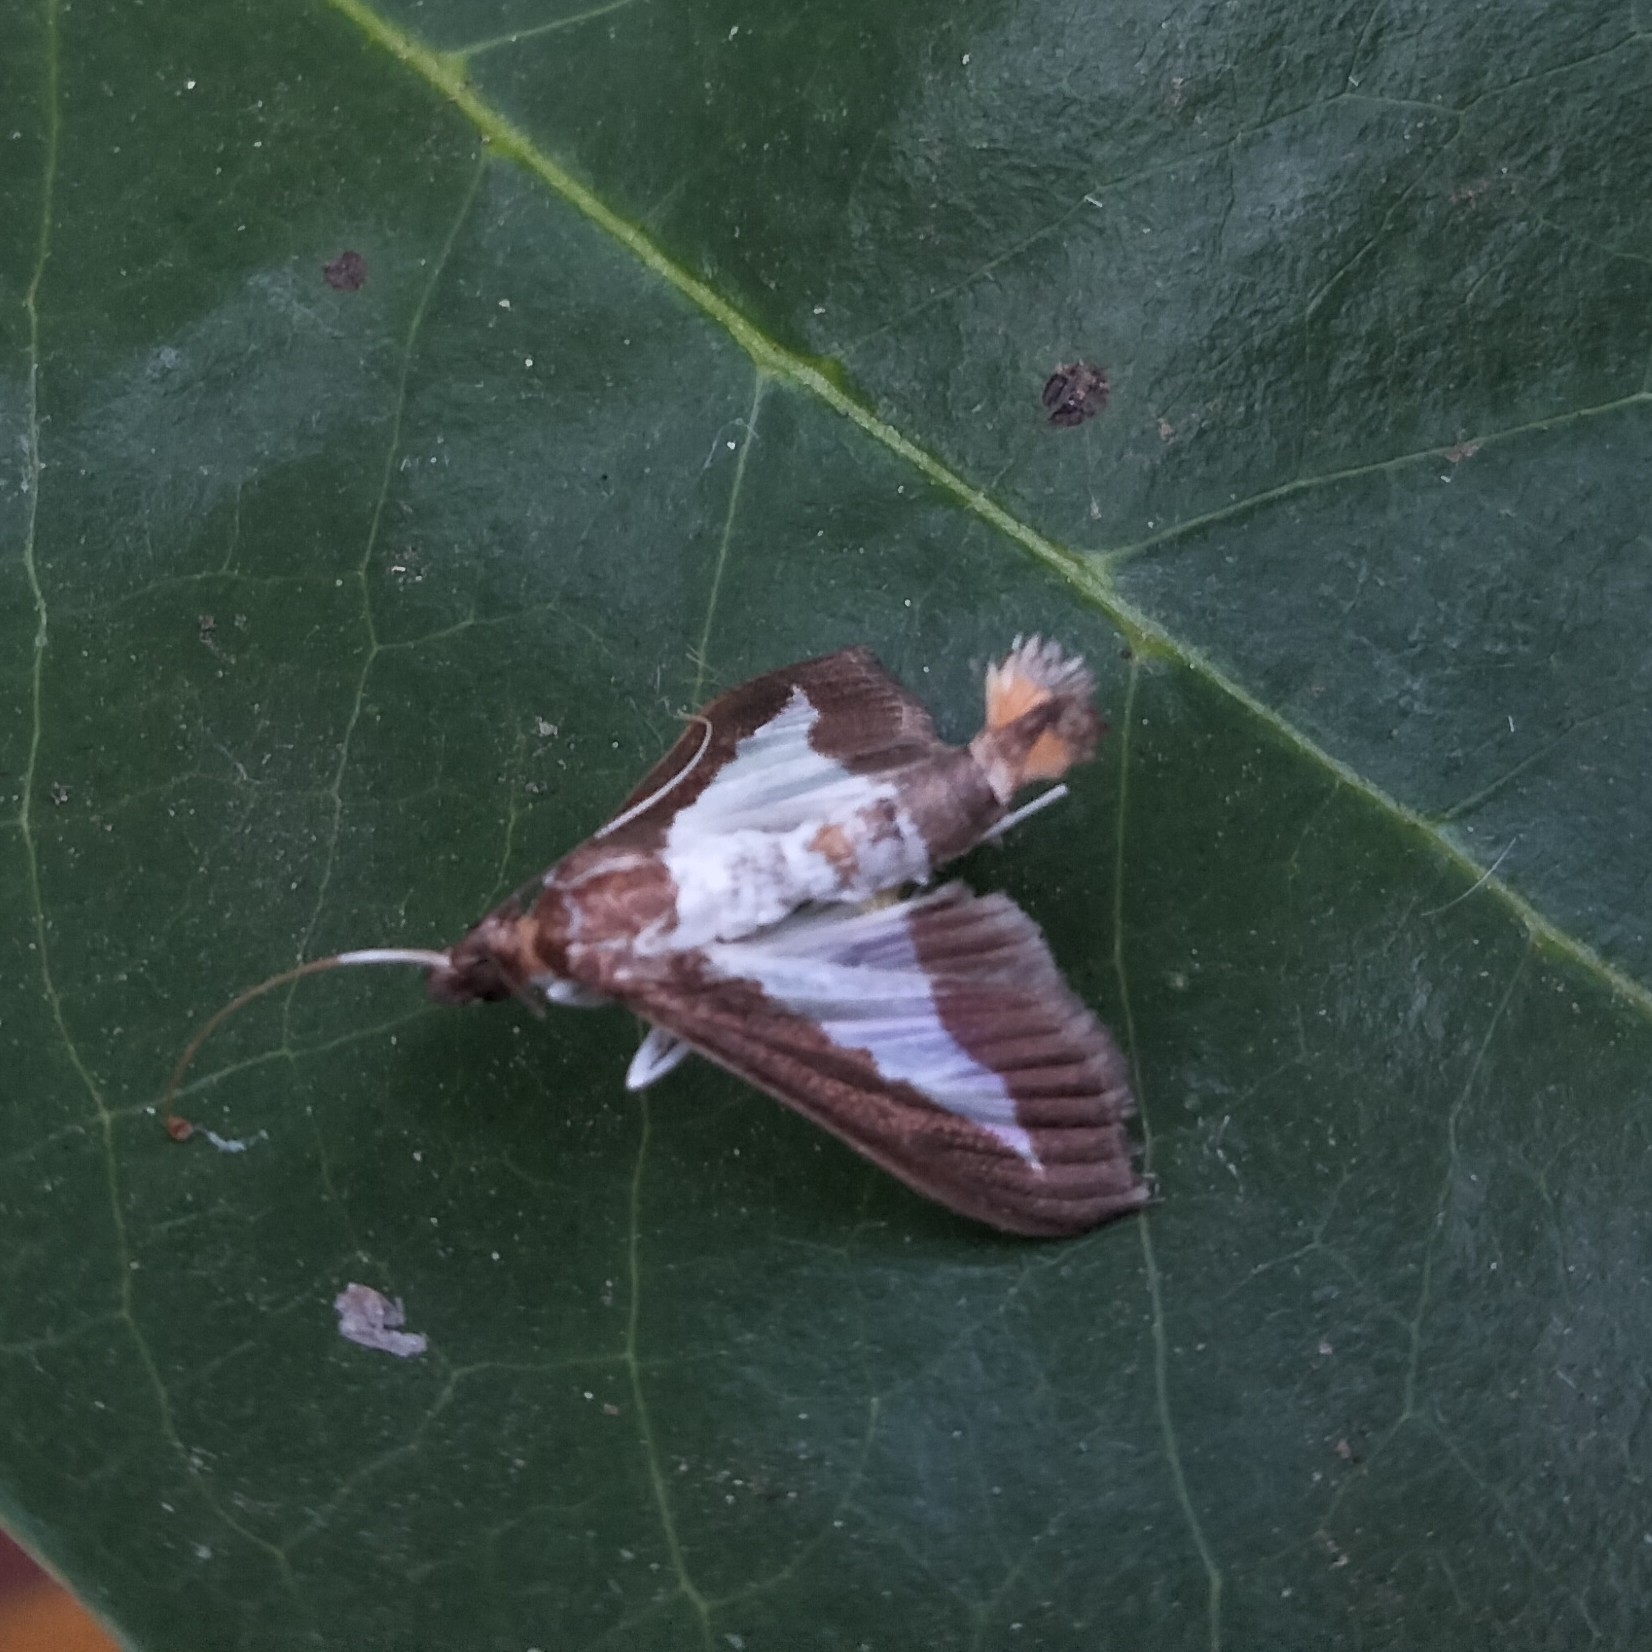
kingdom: Animalia
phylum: Arthropoda
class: Insecta
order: Lepidoptera
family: Crambidae
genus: Diaphania
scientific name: Diaphania indica
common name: Cucumber moth
